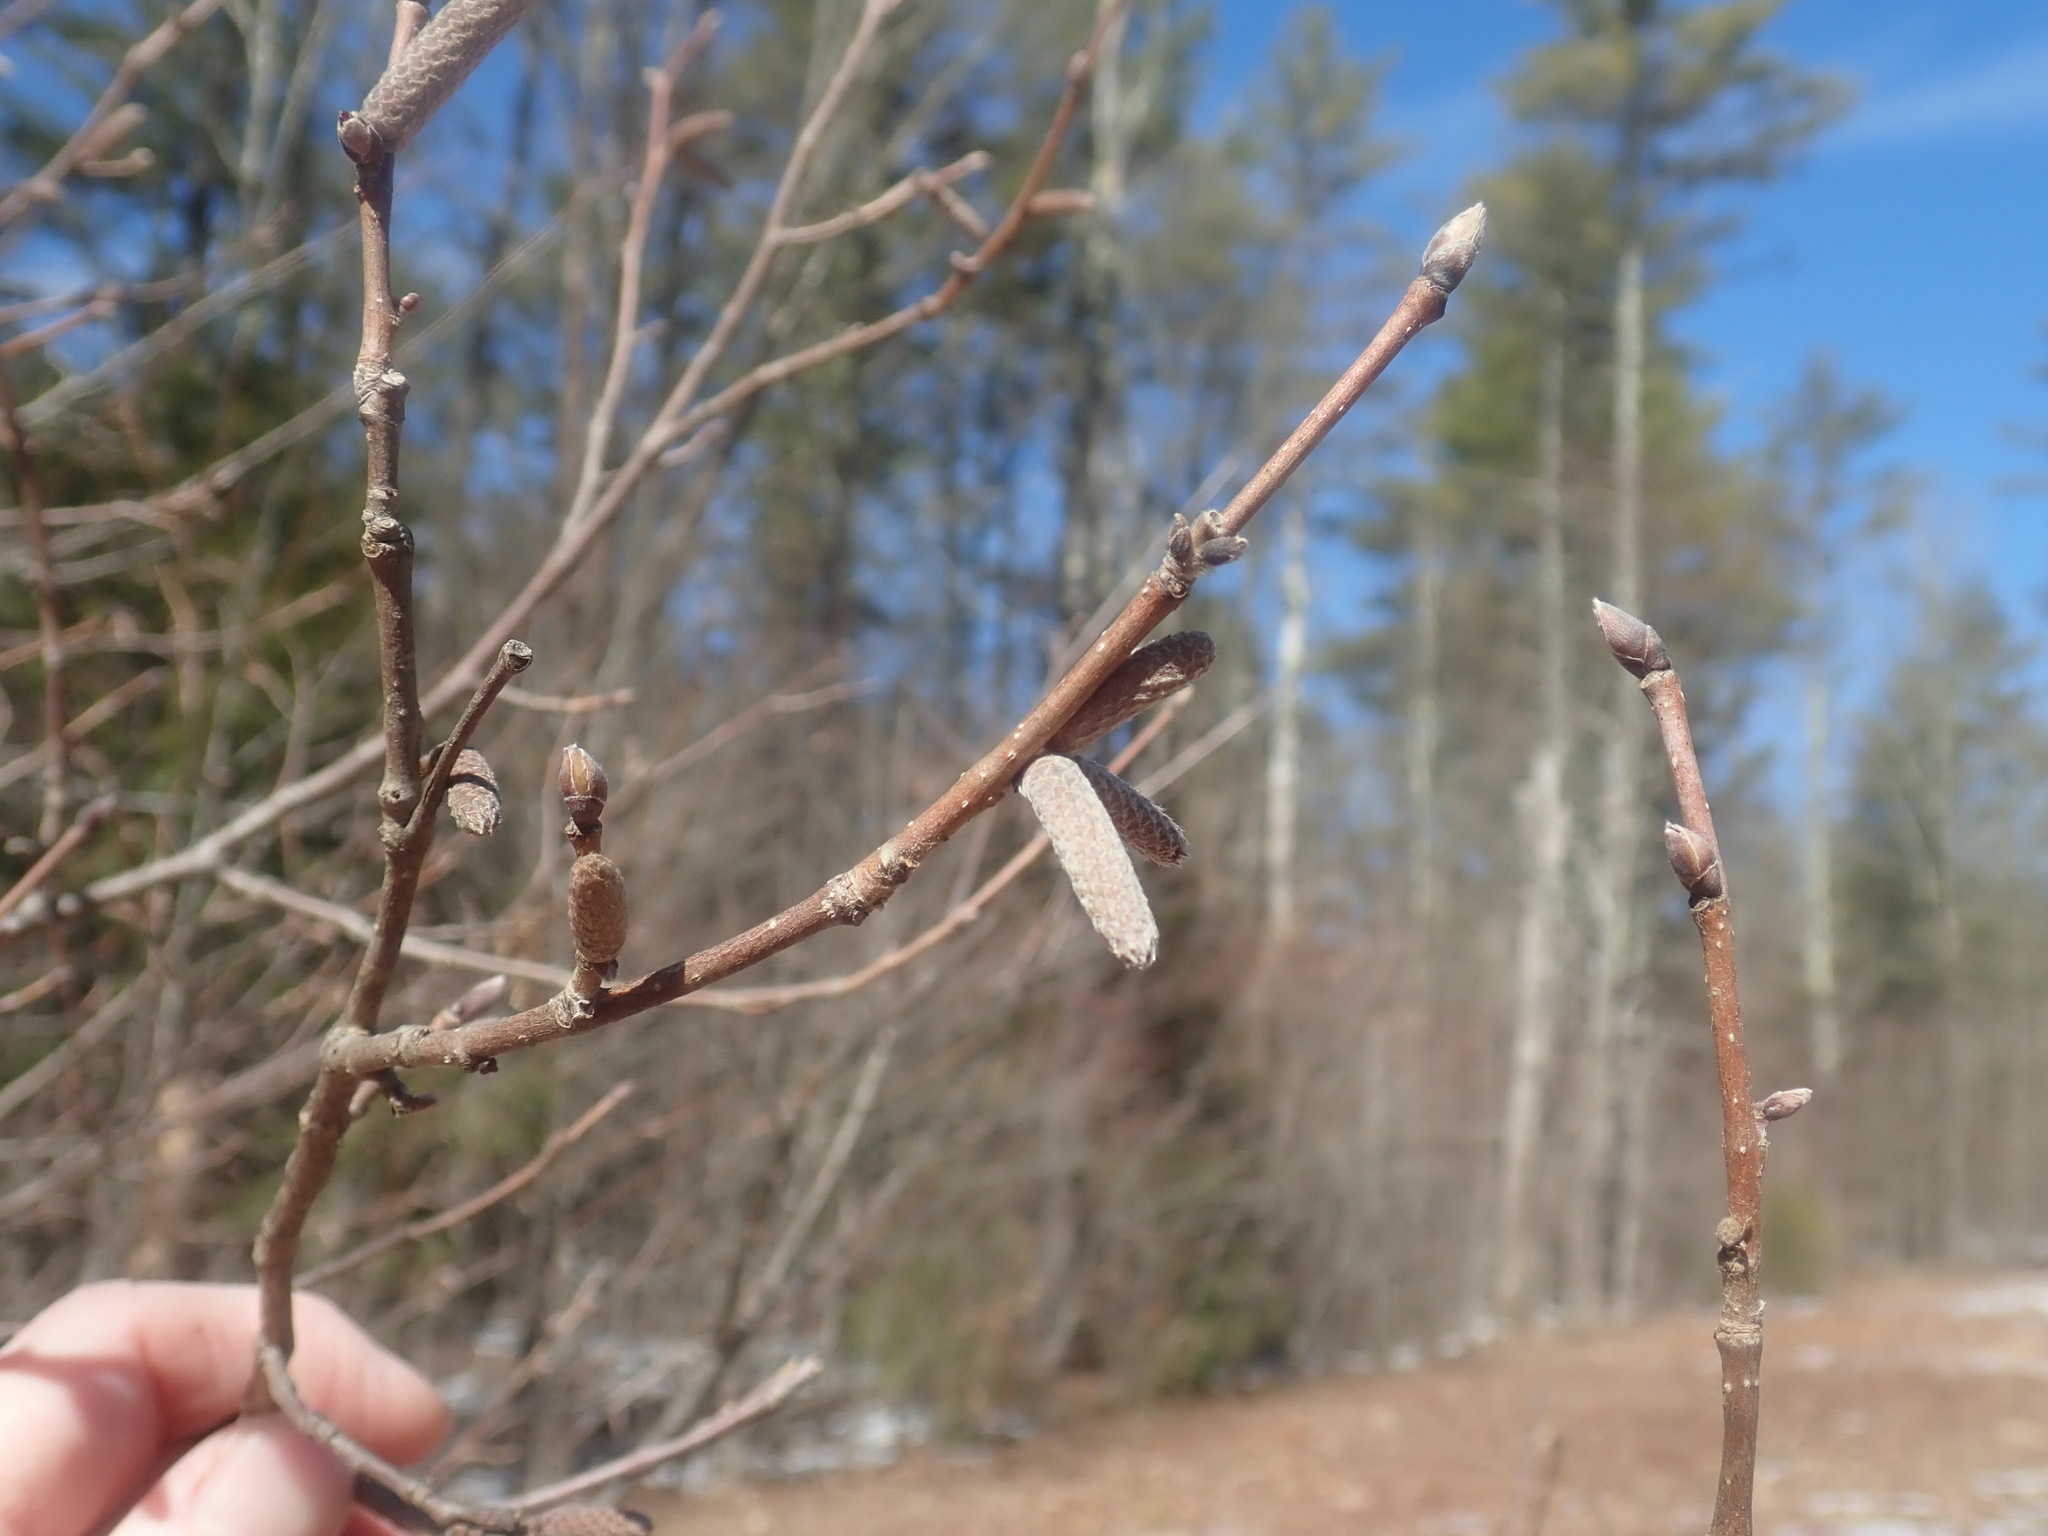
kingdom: Plantae
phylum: Tracheophyta
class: Magnoliopsida
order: Fagales
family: Betulaceae
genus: Corylus
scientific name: Corylus cornuta
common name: Beaked hazel
